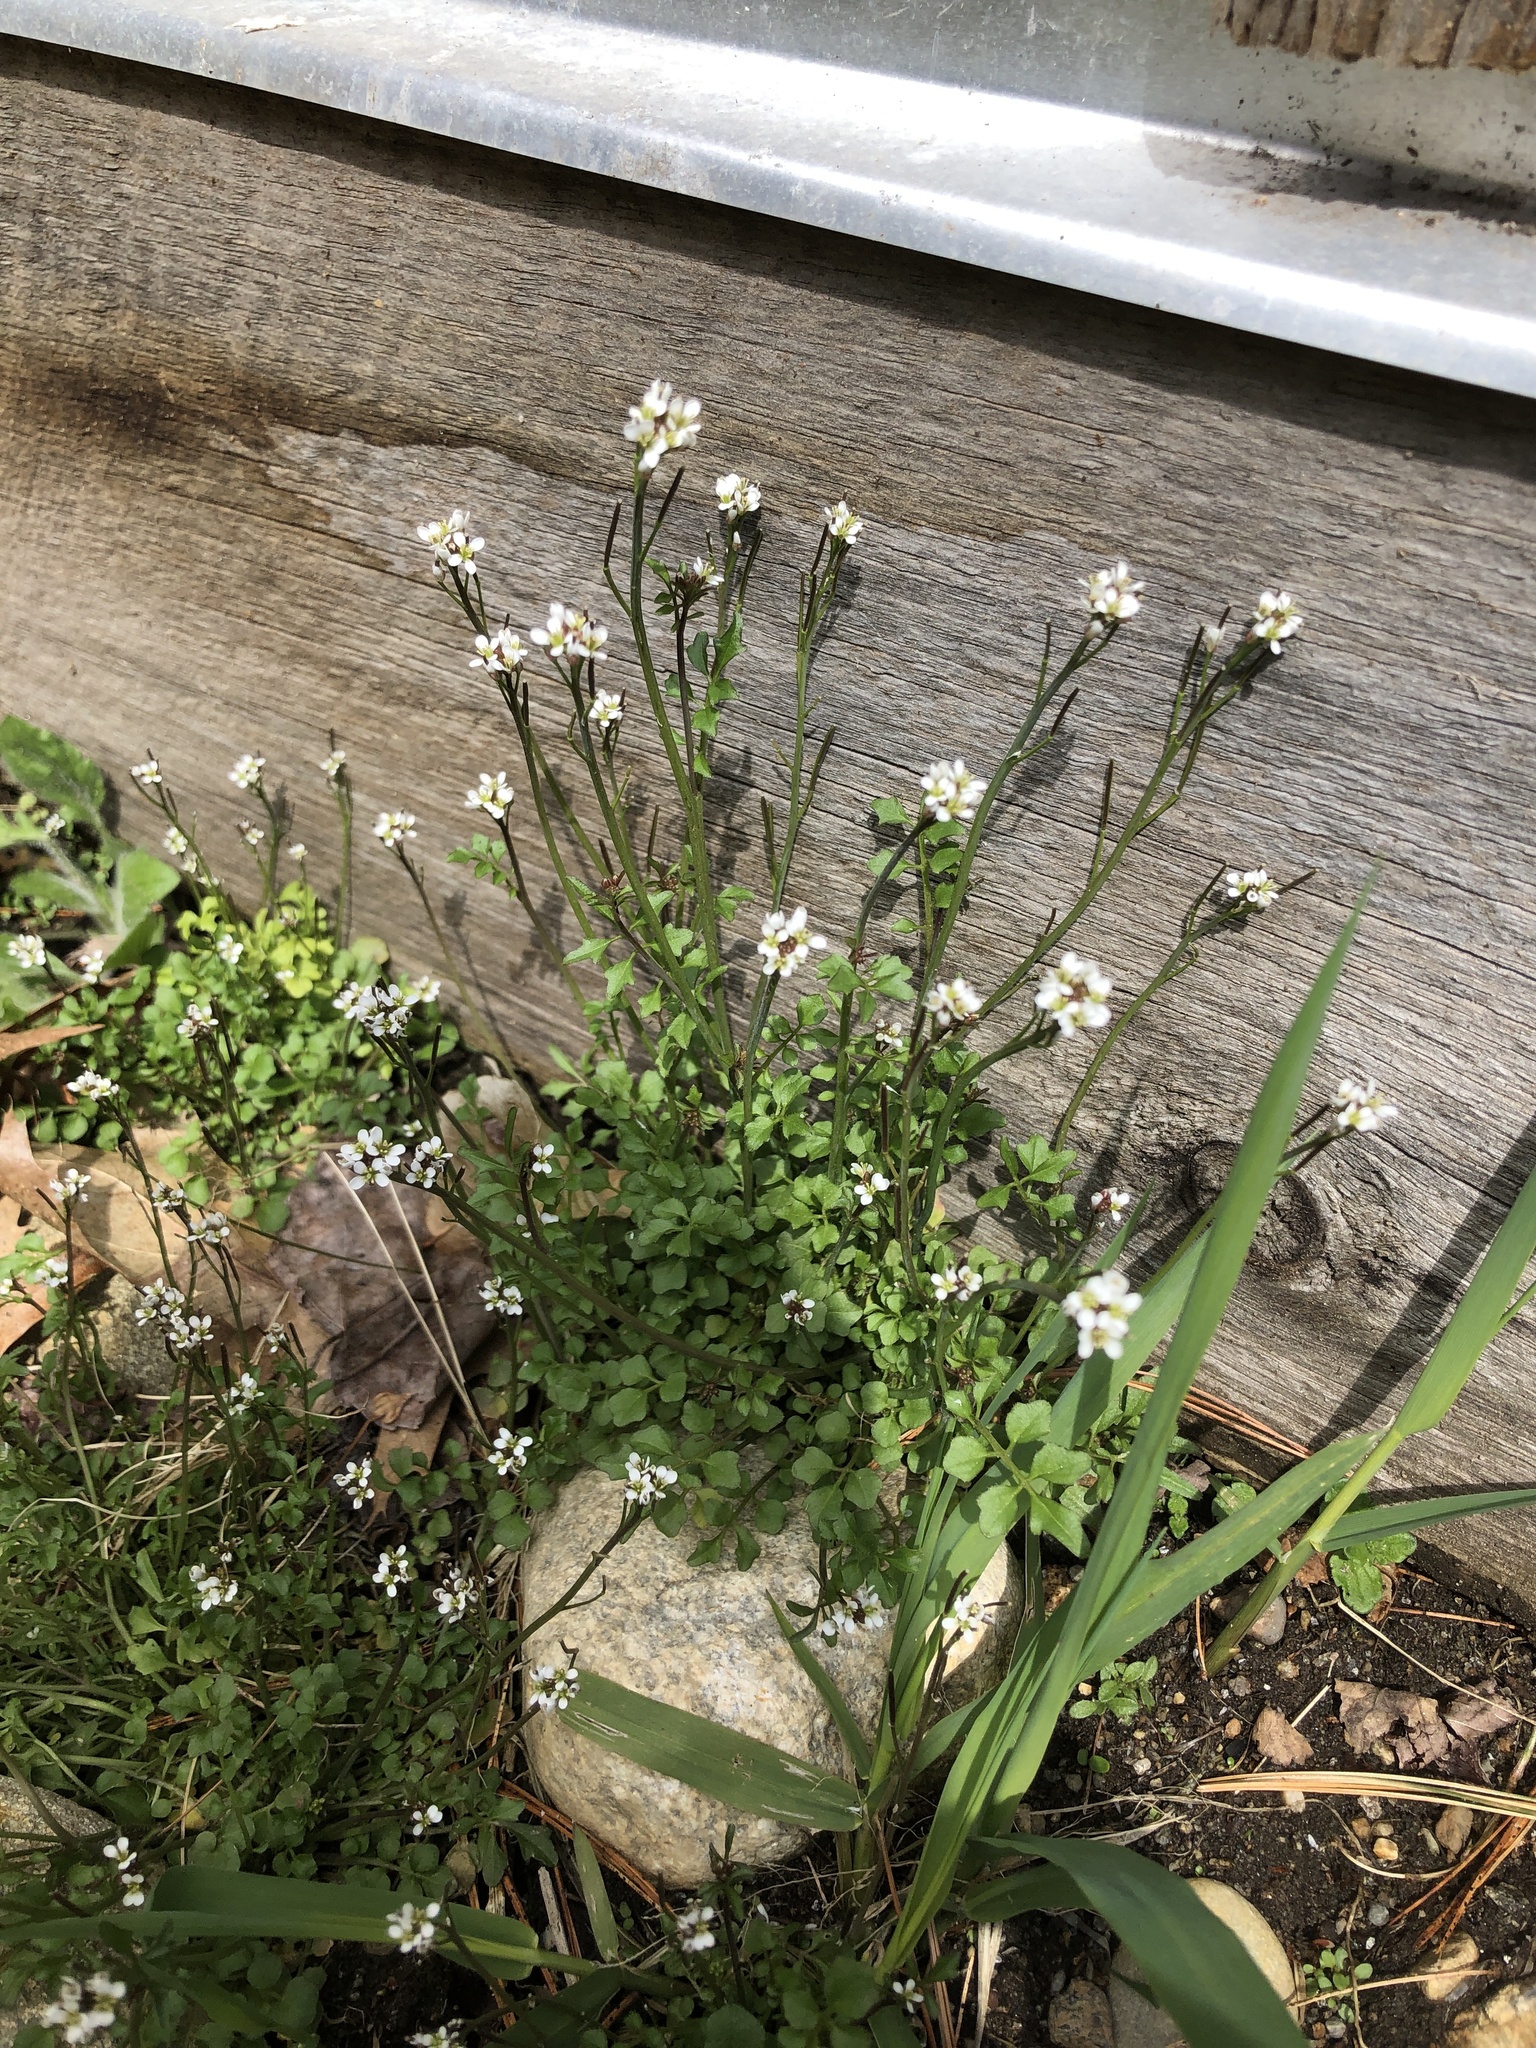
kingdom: Plantae
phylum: Tracheophyta
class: Magnoliopsida
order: Brassicales
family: Brassicaceae
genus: Cardamine
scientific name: Cardamine hirsuta
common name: Hairy bittercress
